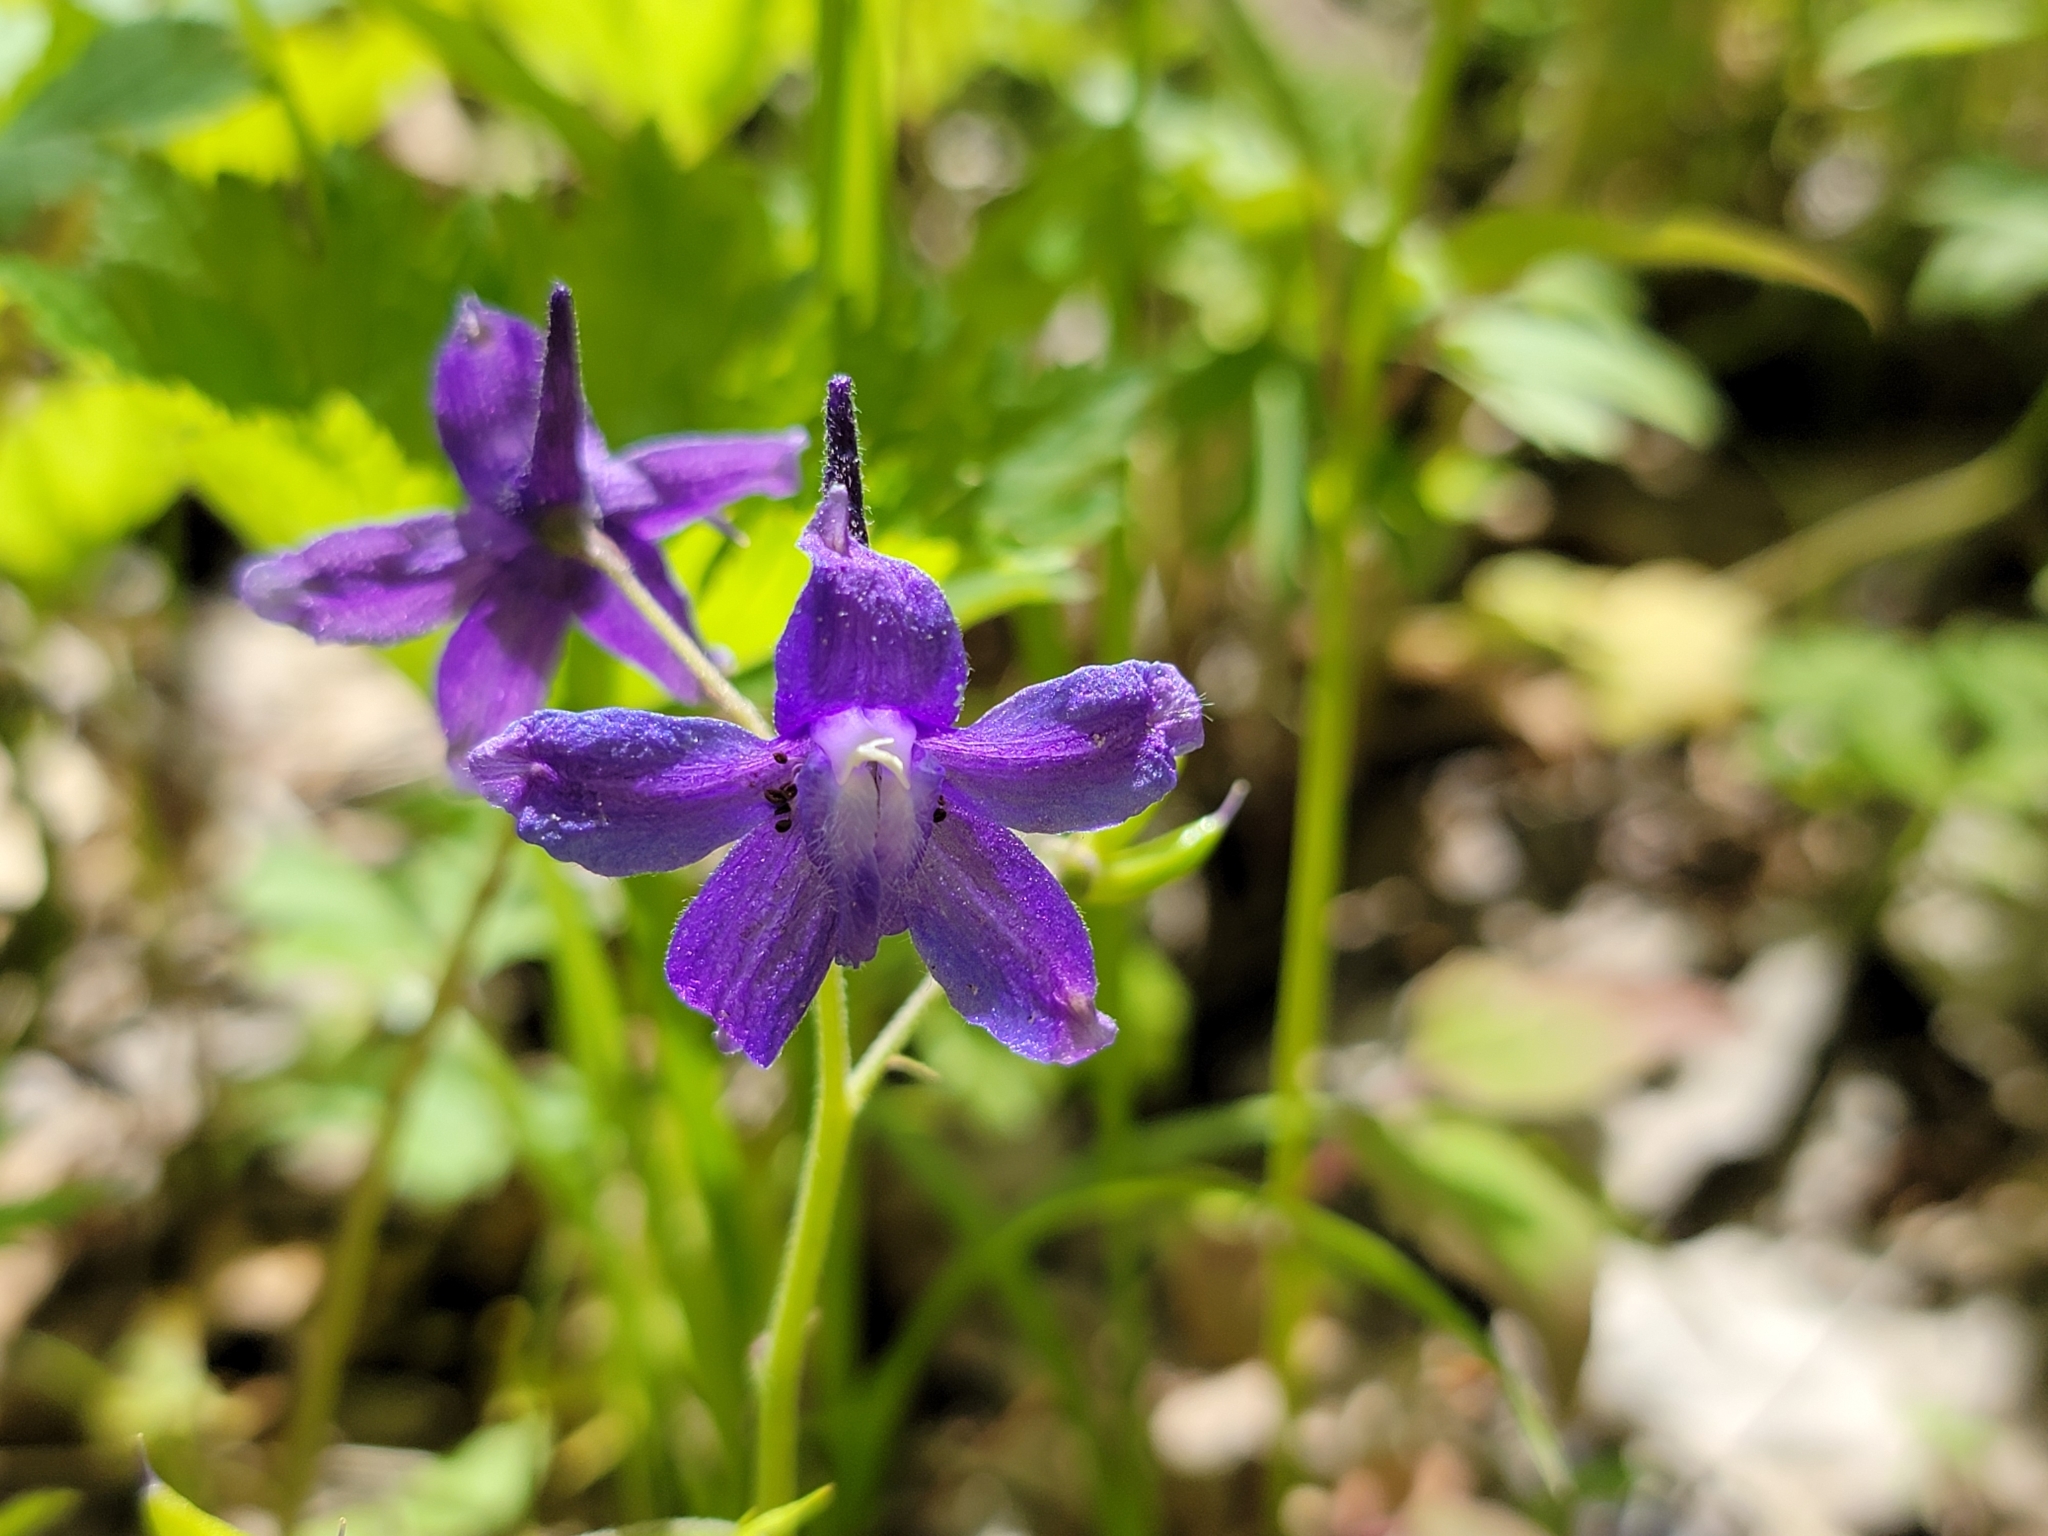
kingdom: Plantae
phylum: Tracheophyta
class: Magnoliopsida
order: Ranunculales
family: Ranunculaceae
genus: Delphinium
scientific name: Delphinium tricorne
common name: Dwarf larkspur
